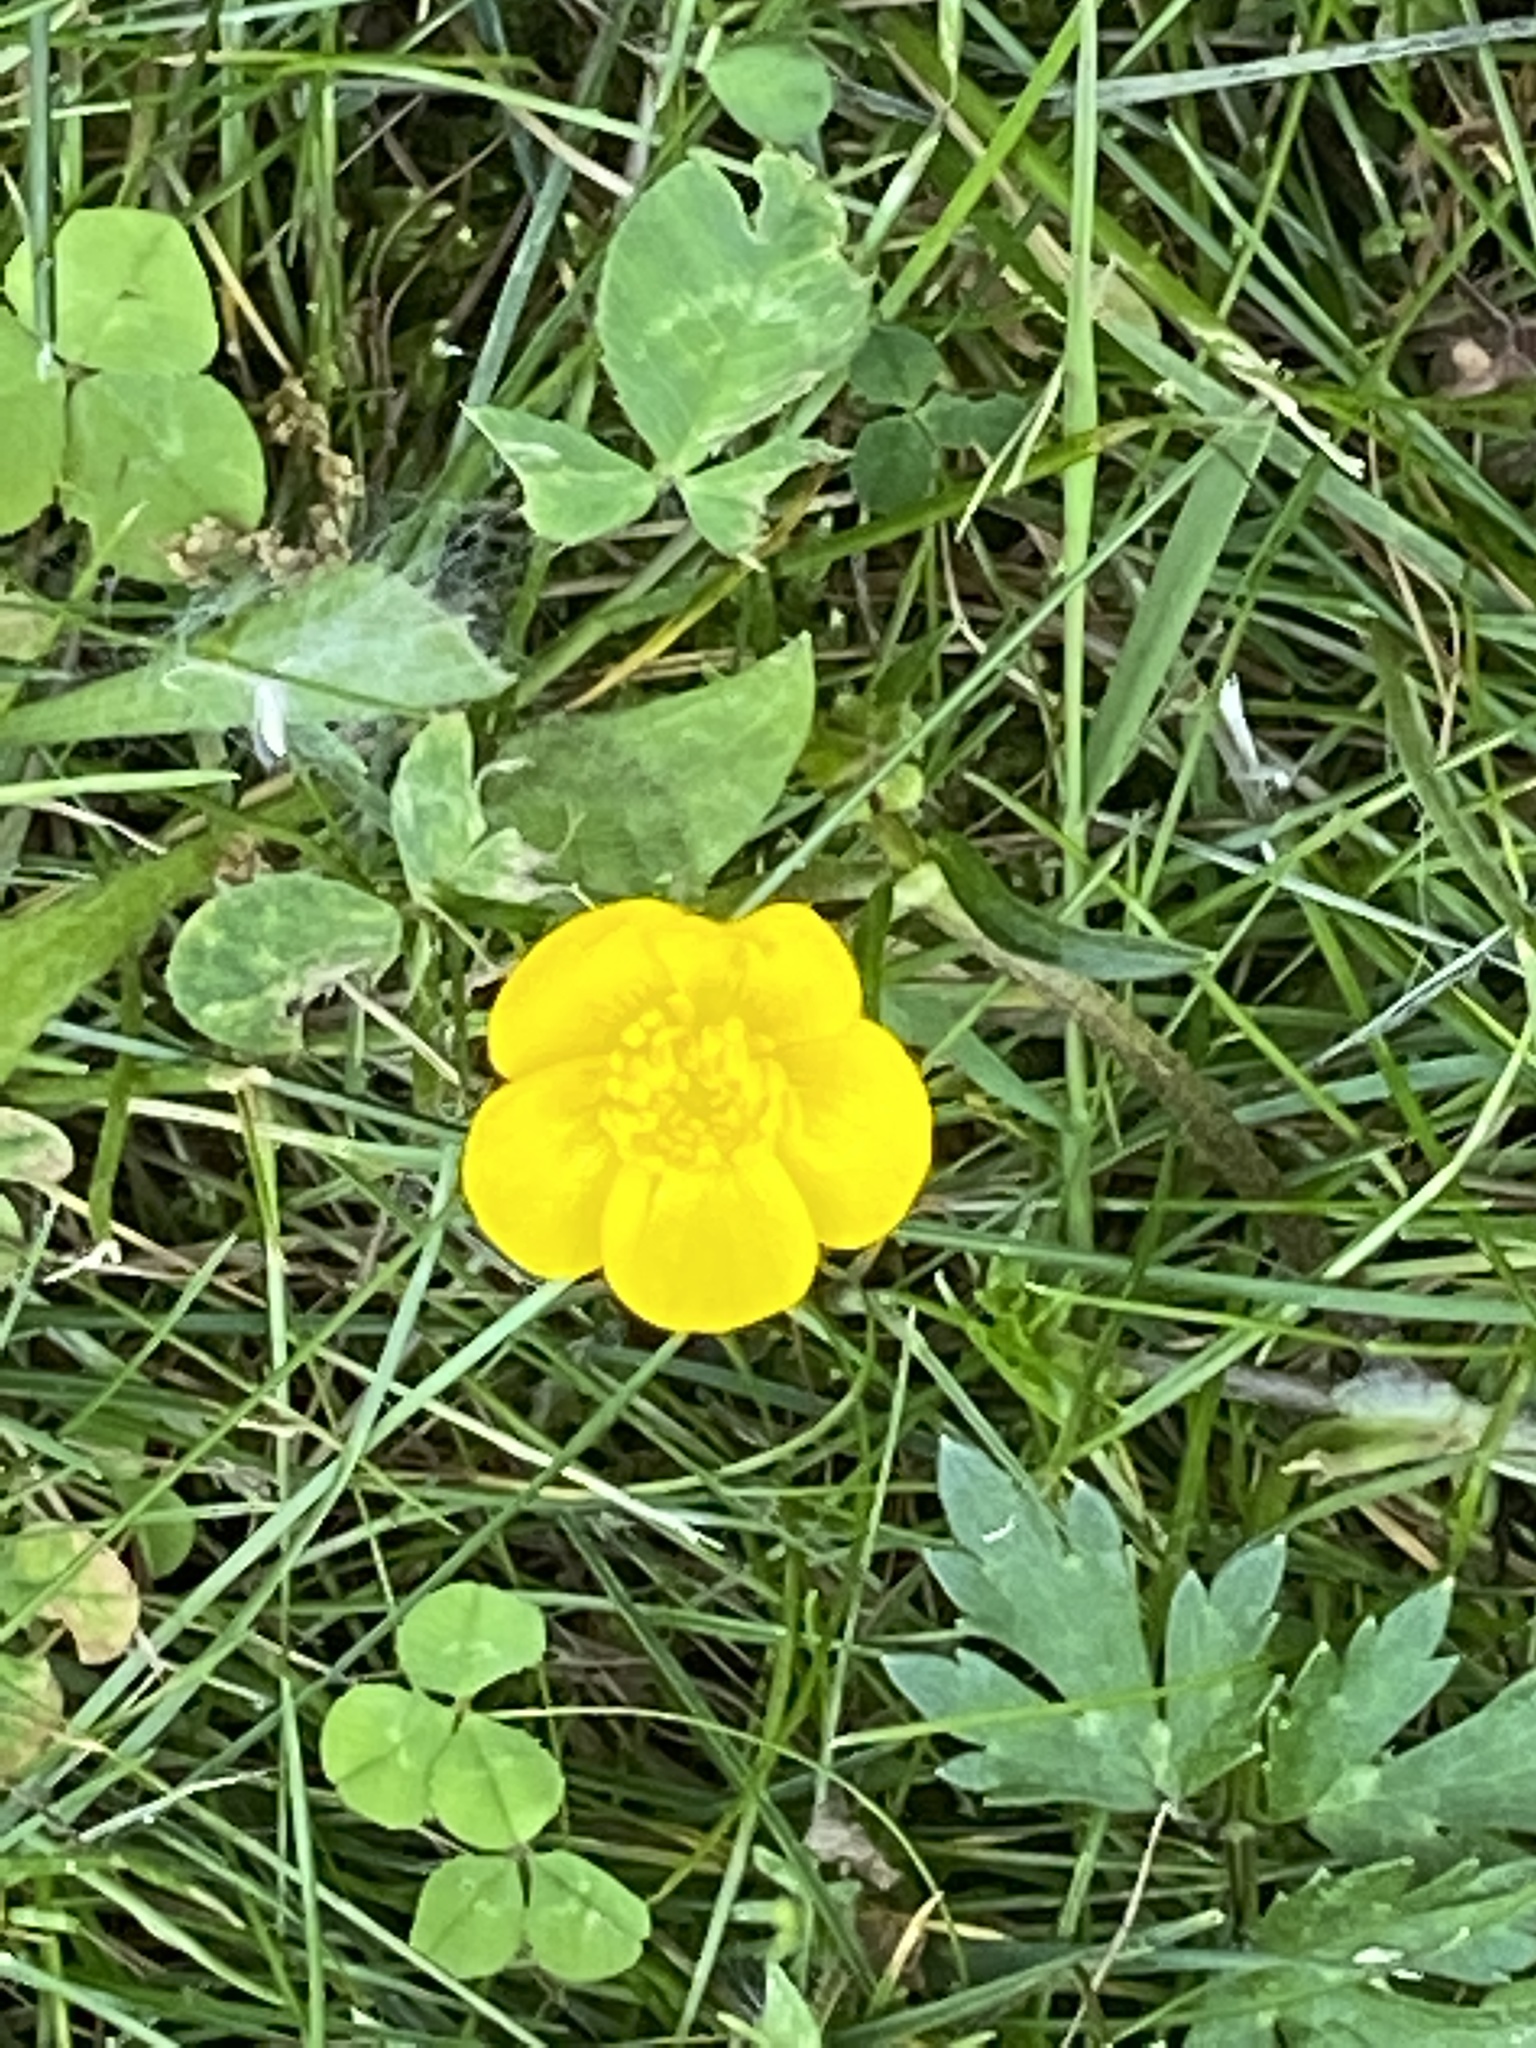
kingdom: Plantae
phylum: Tracheophyta
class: Magnoliopsida
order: Ranunculales
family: Ranunculaceae
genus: Ranunculus
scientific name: Ranunculus repens
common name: Creeping buttercup
